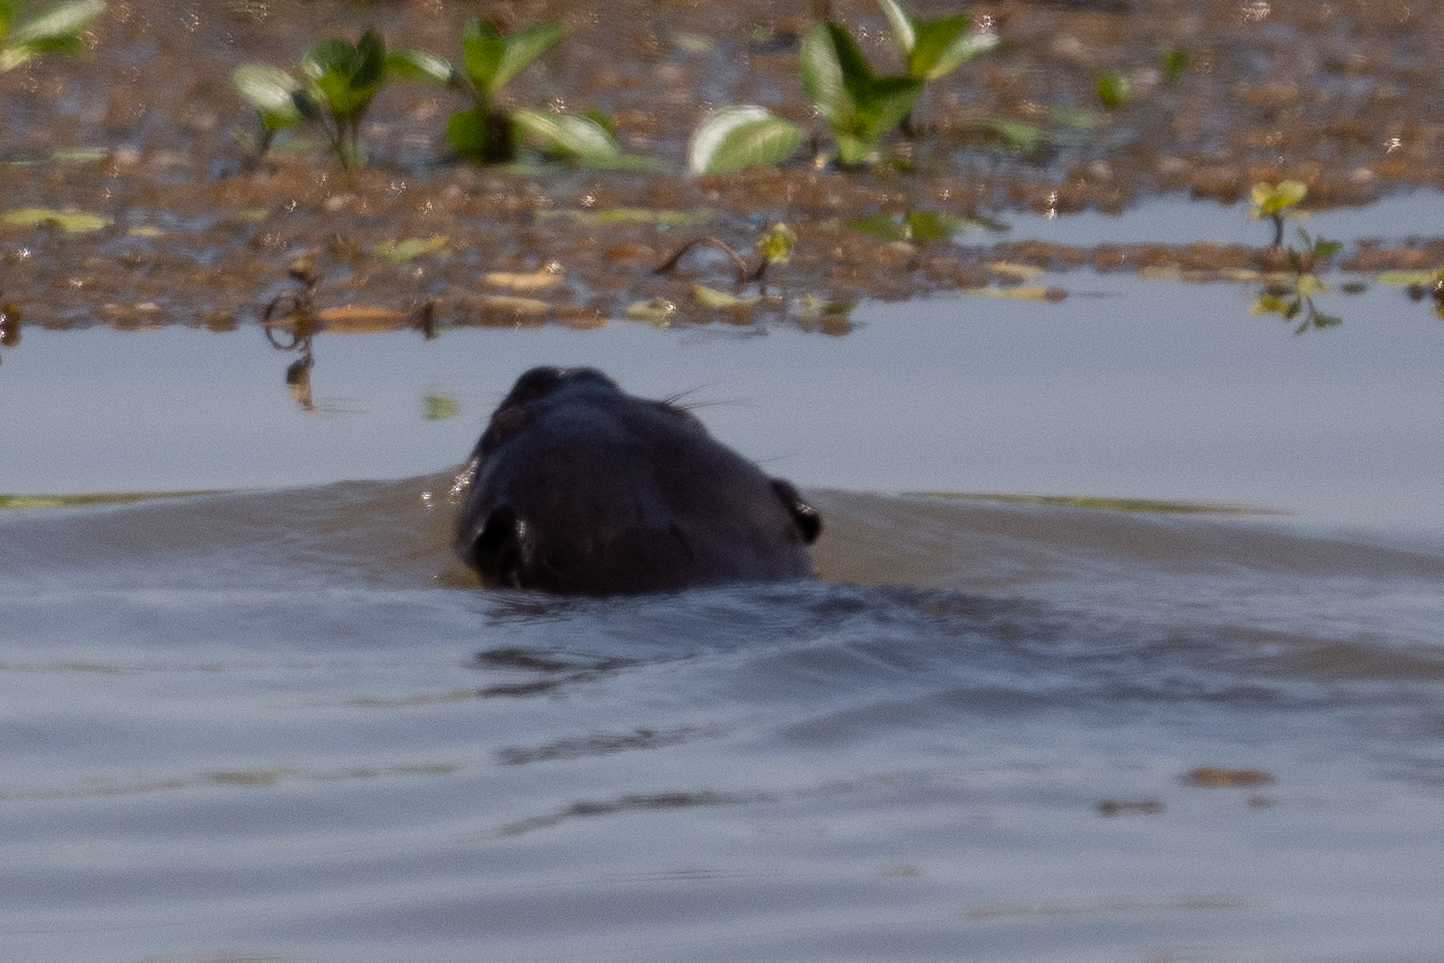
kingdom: Animalia
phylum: Chordata
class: Mammalia
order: Carnivora
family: Mustelidae
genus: Lontra
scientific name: Lontra canadensis
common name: North american river otter
